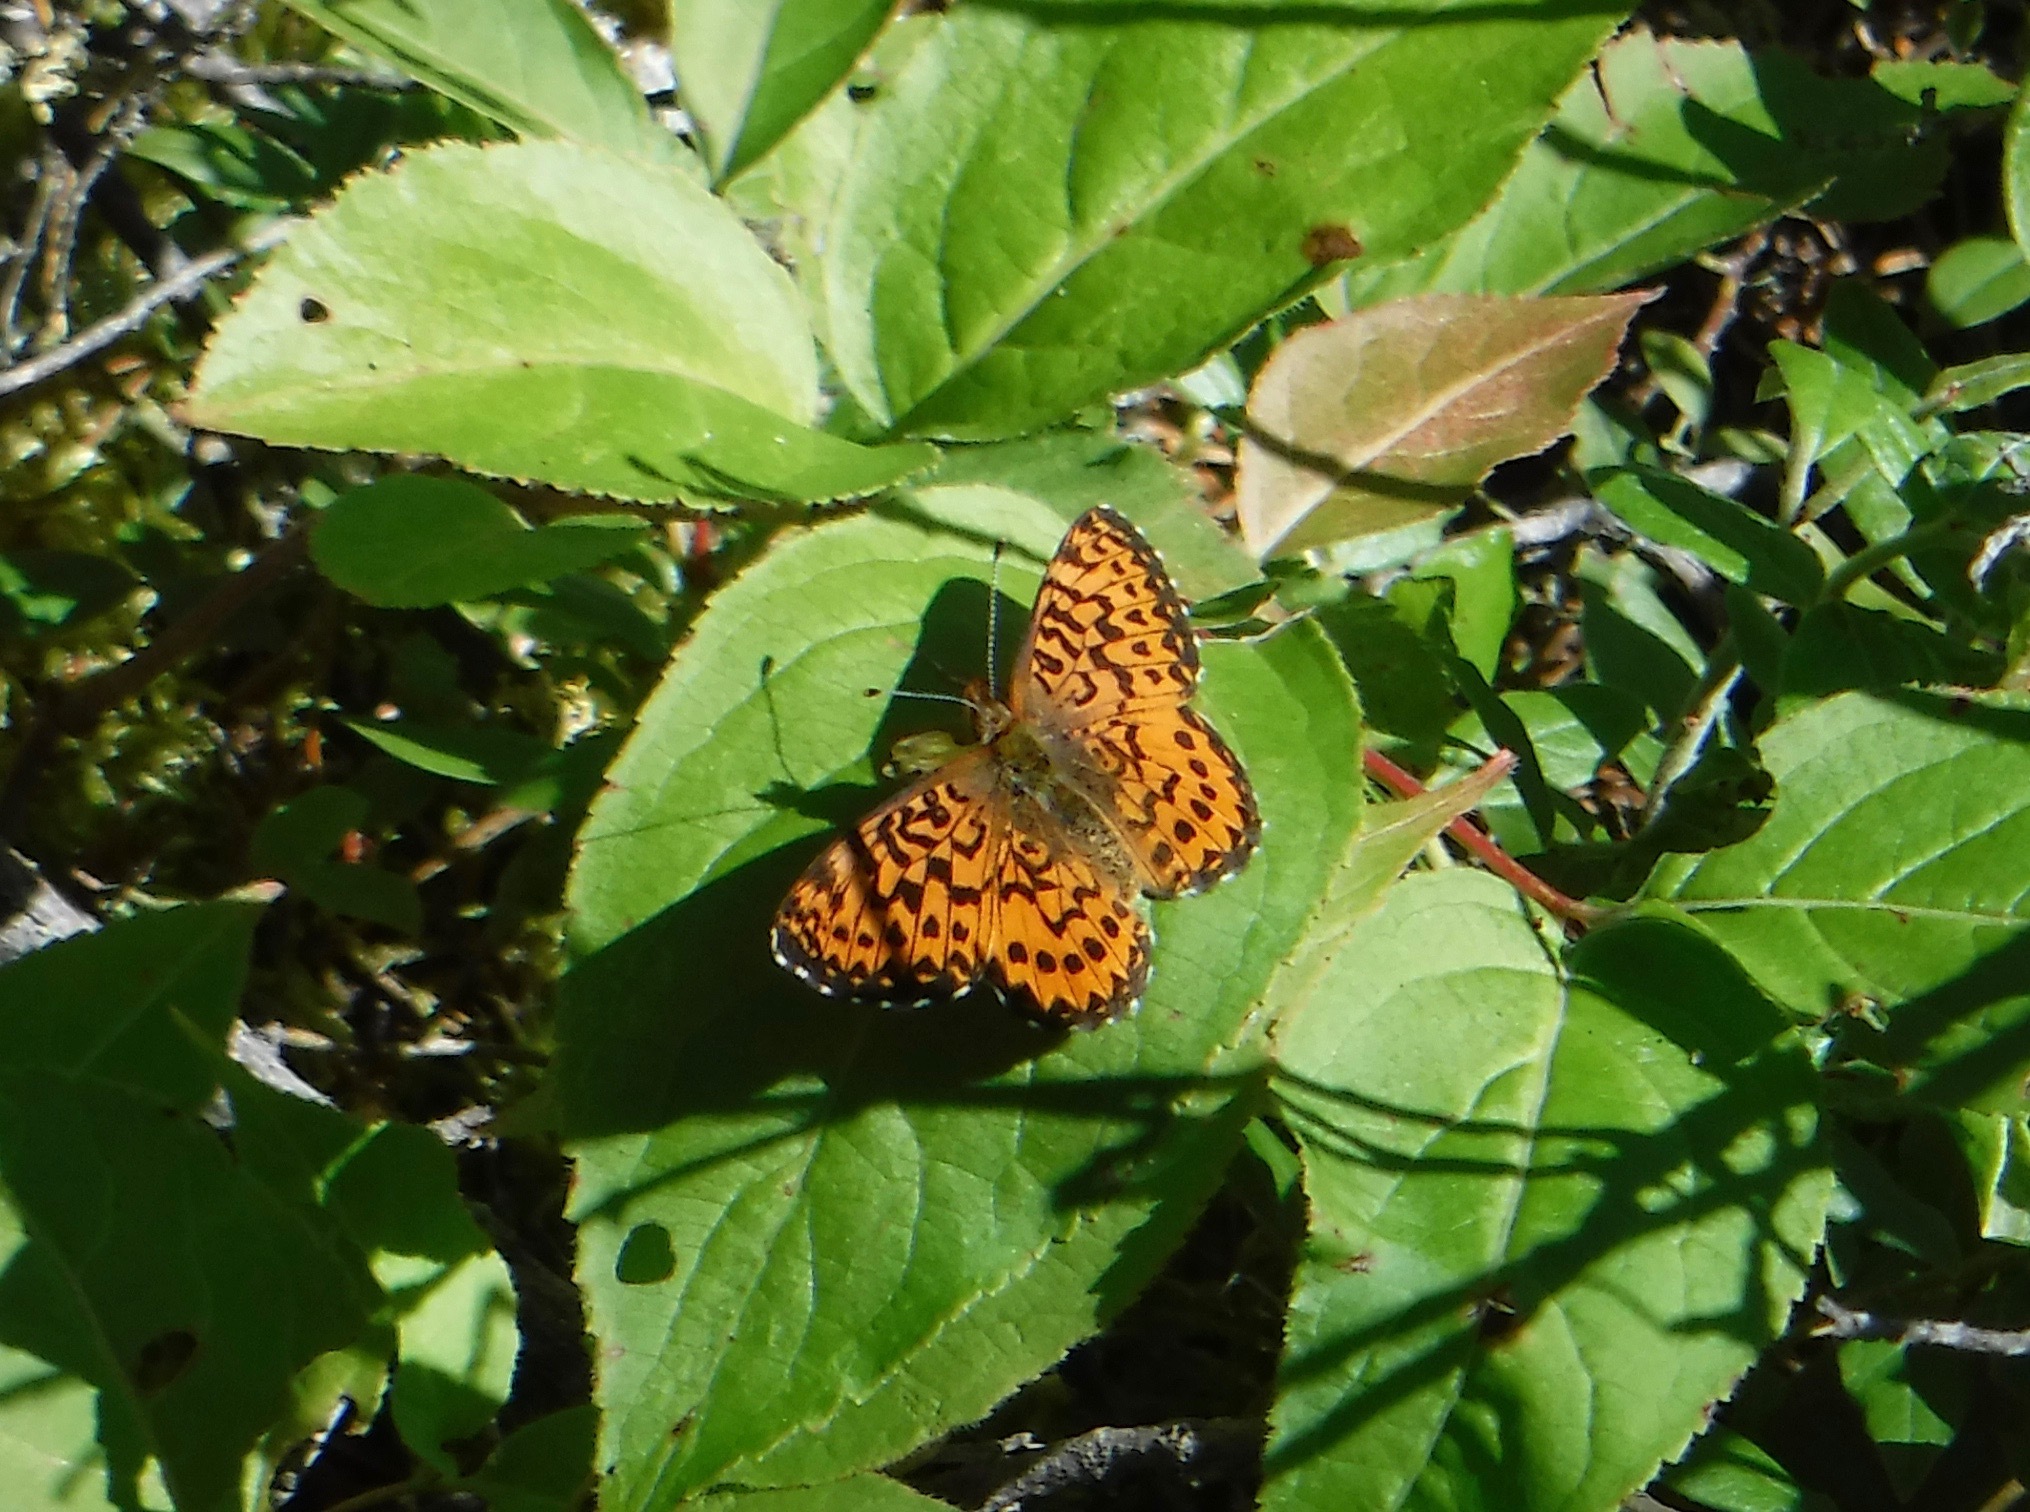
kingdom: Animalia
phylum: Arthropoda
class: Insecta
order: Lepidoptera
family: Nymphalidae
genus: Boloria
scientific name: Boloria chariclea
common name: Arctic fritillary
